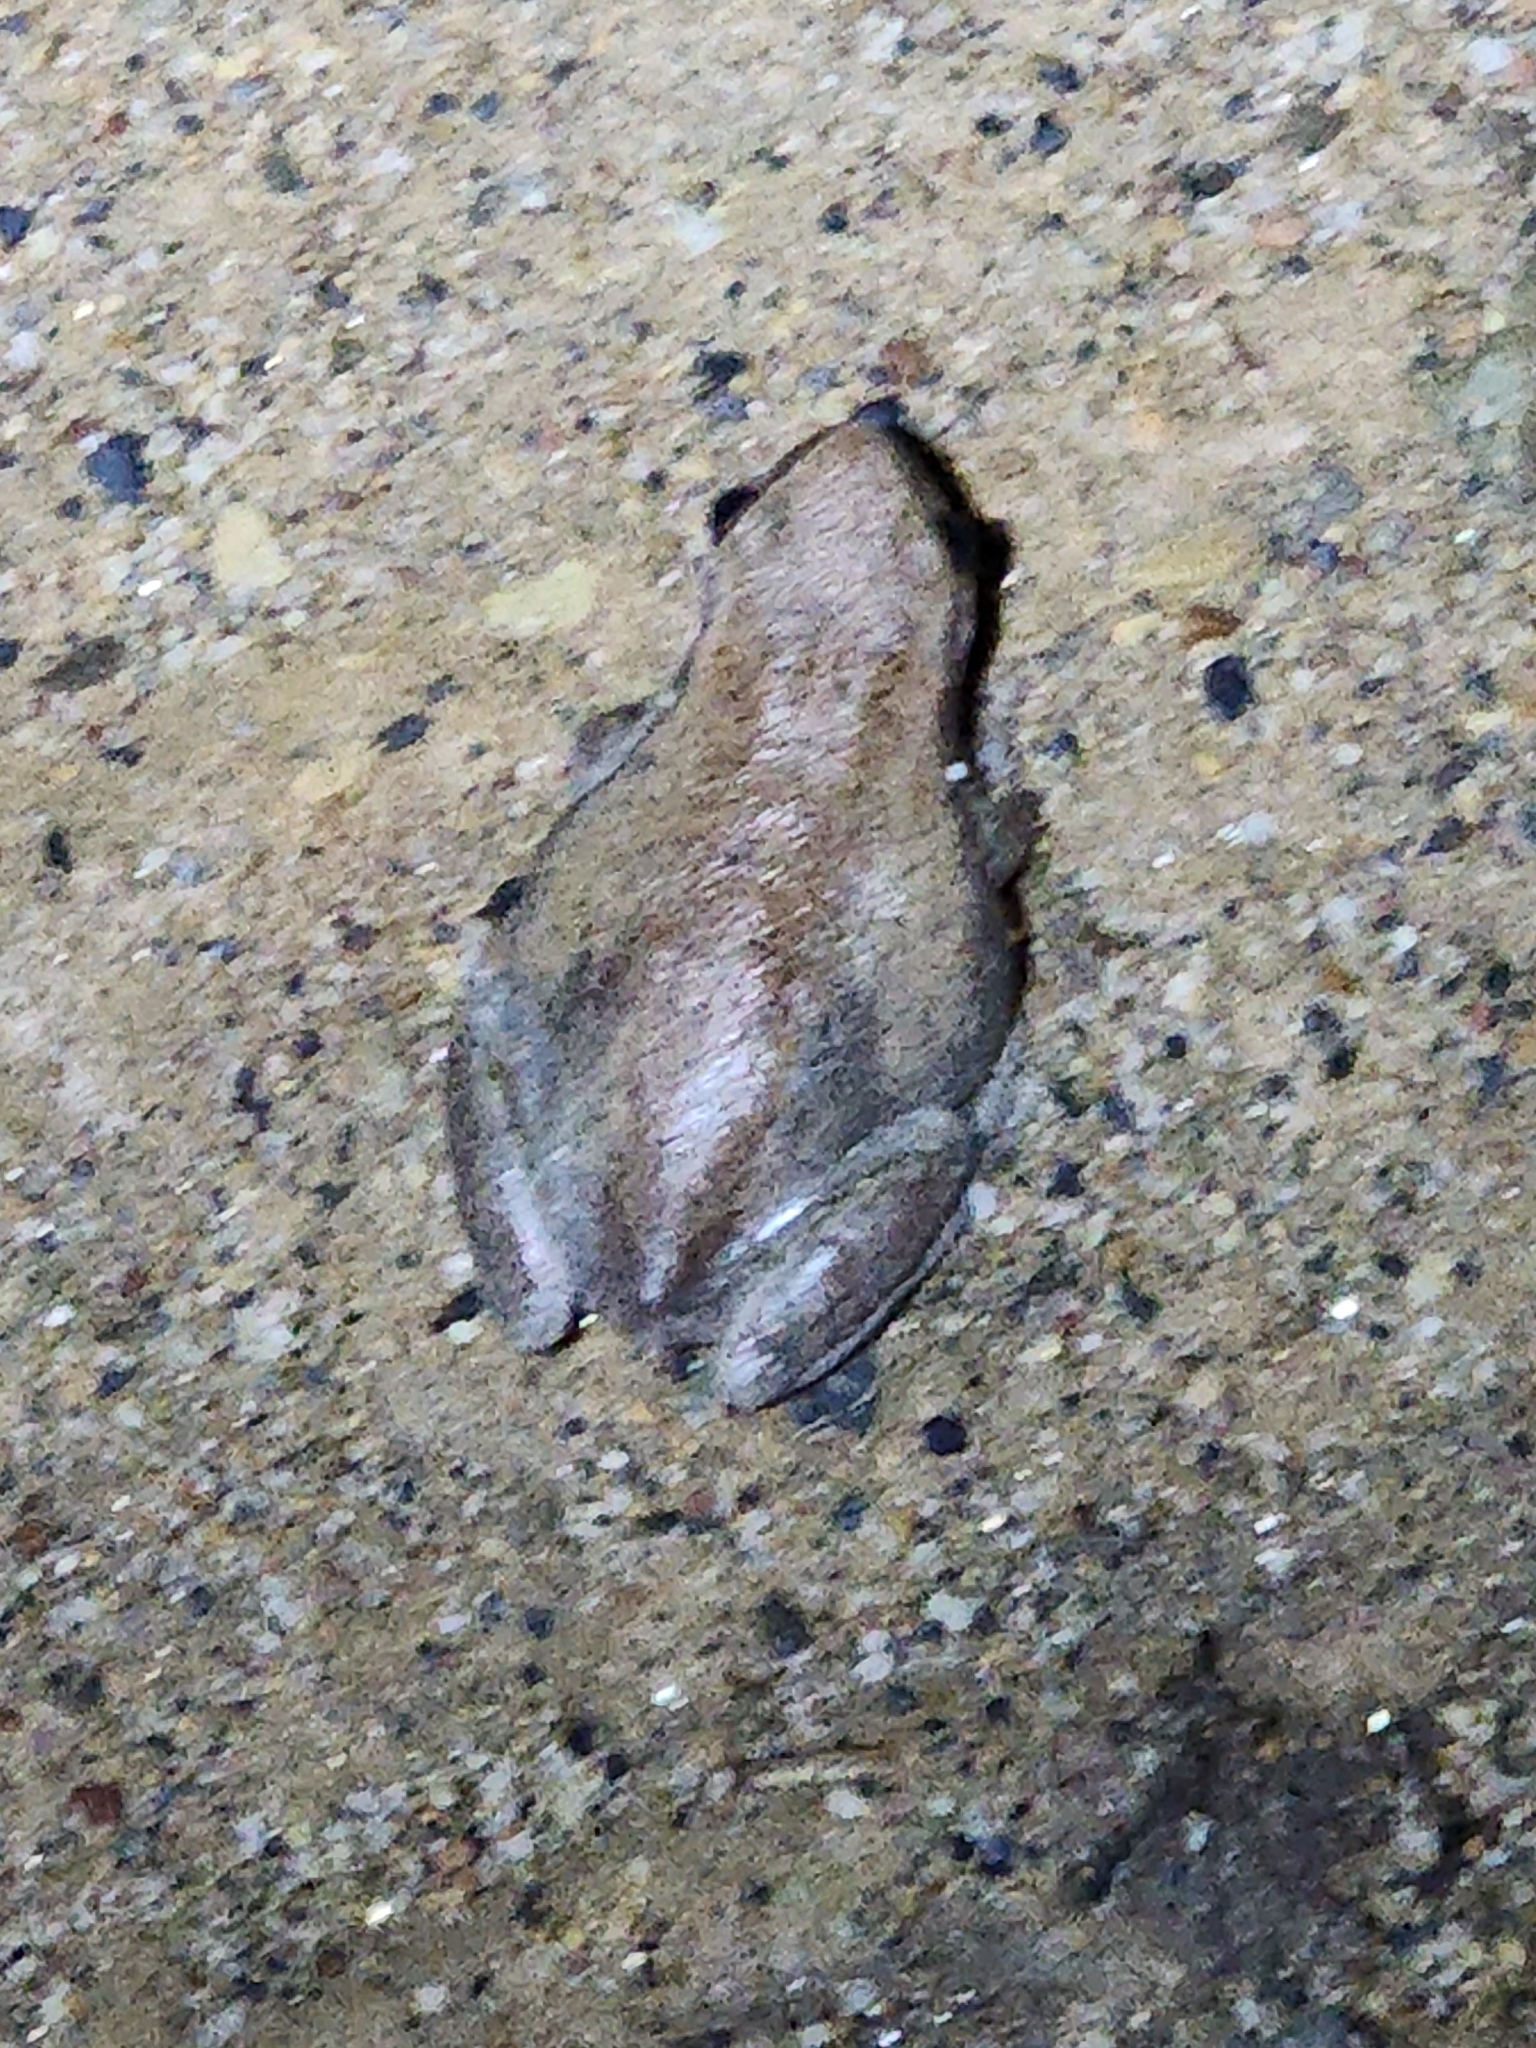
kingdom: Animalia
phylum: Chordata
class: Amphibia
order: Anura
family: Pelodryadidae
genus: Litoria
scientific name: Litoria rubella
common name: Desert tree frog
